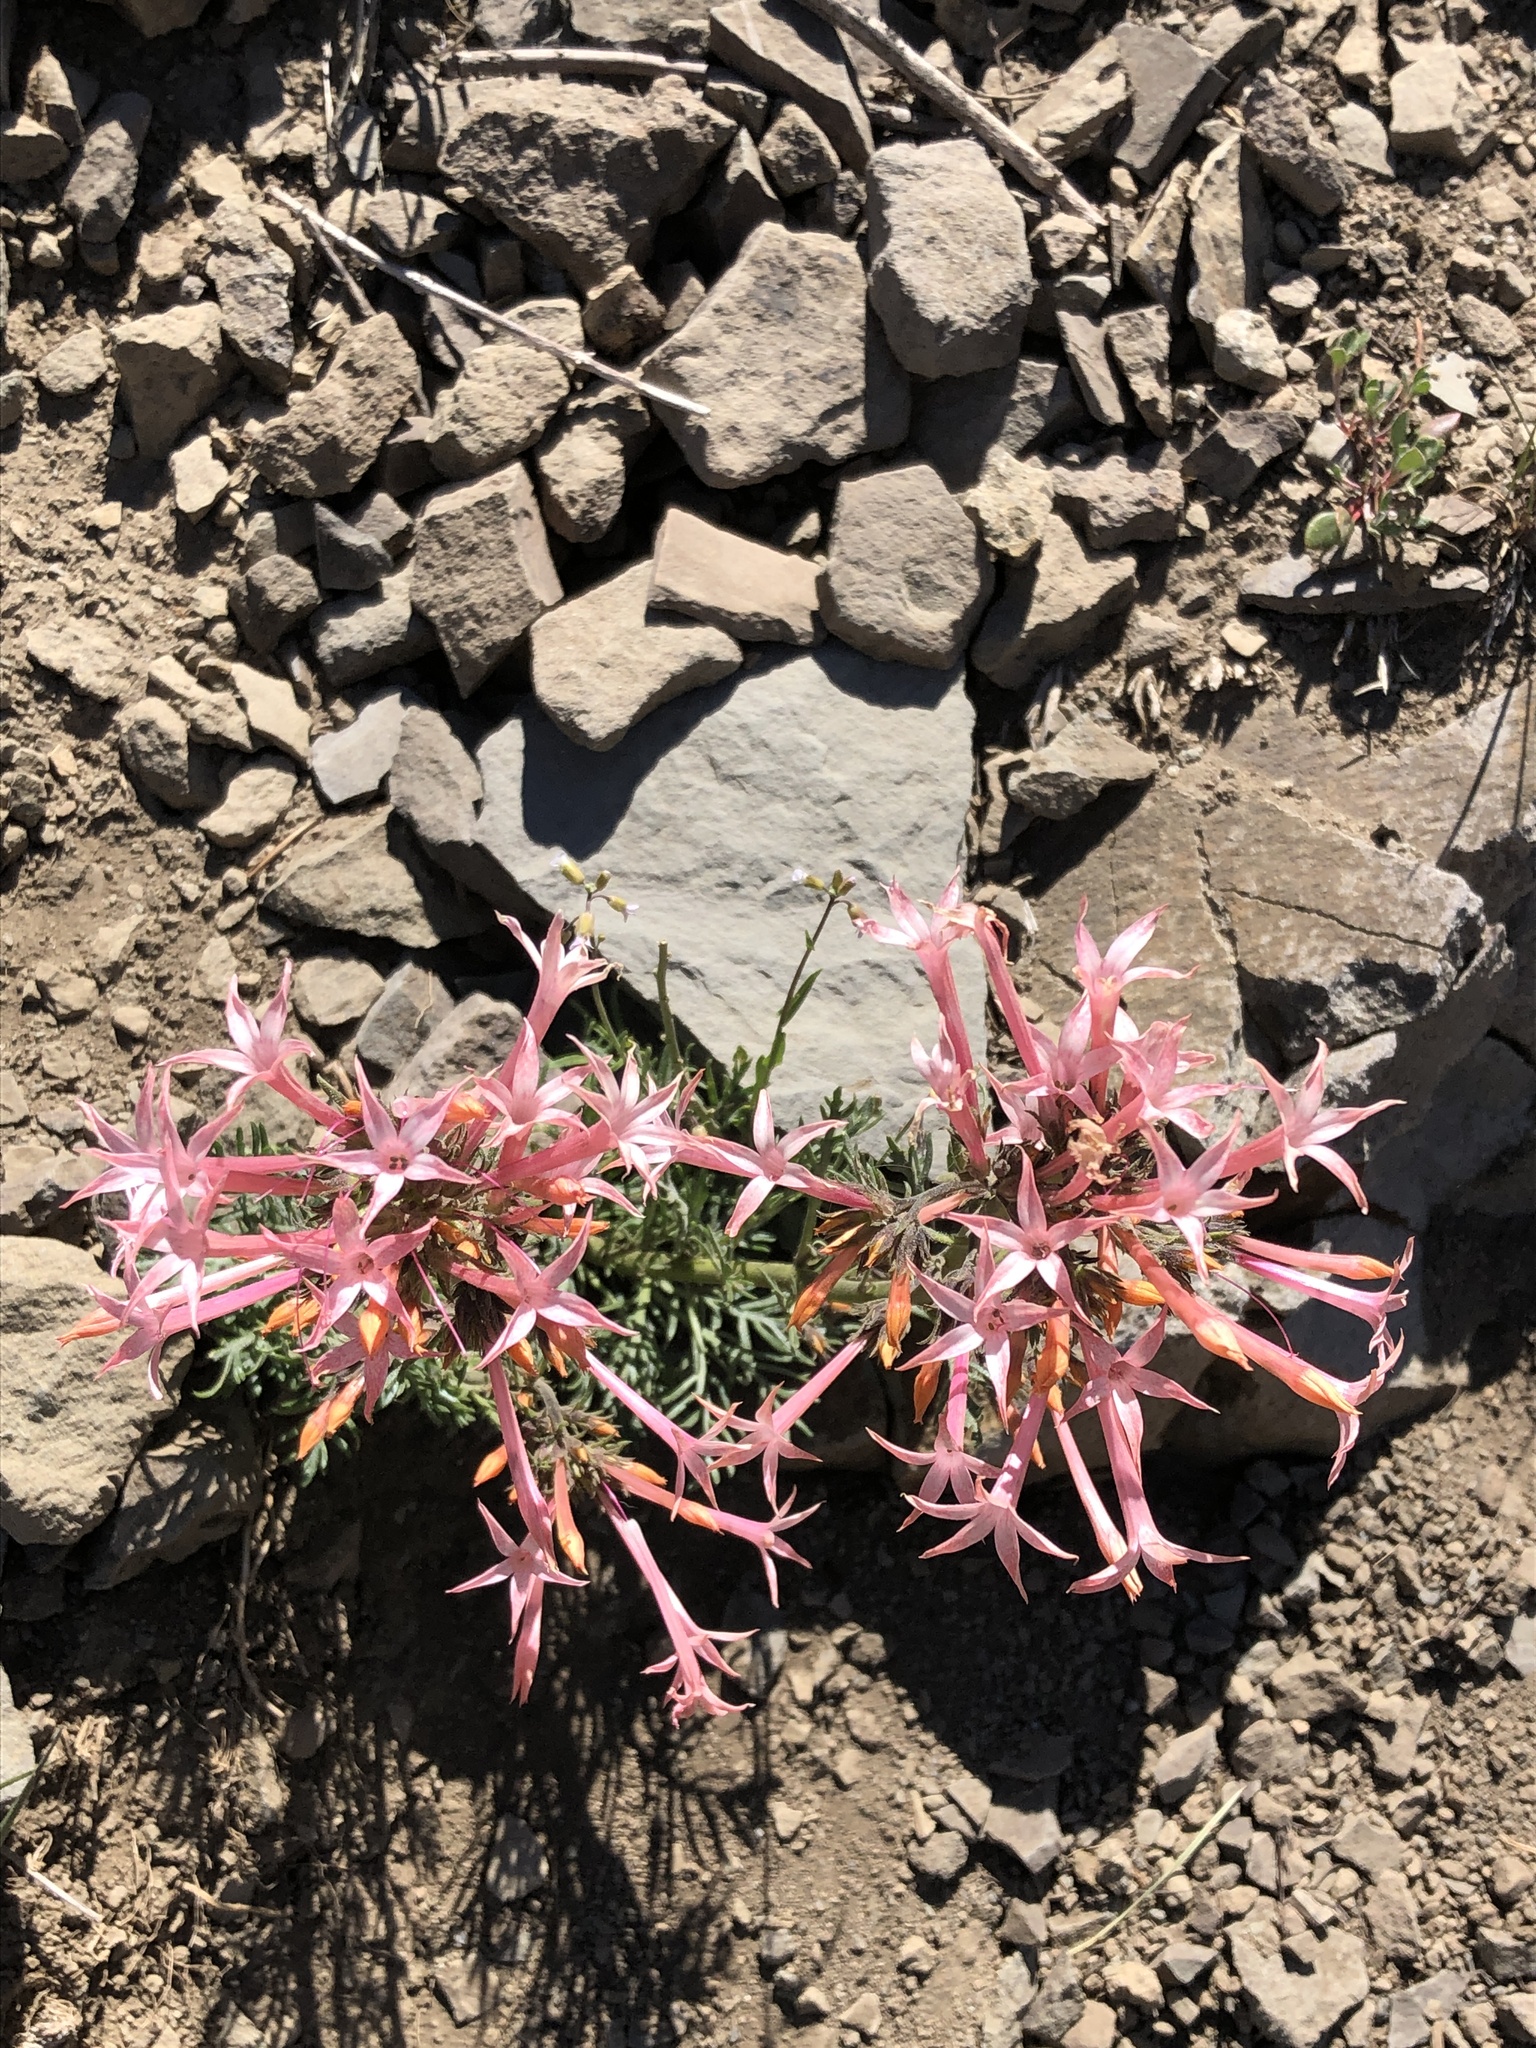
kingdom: Plantae
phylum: Tracheophyta
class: Magnoliopsida
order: Ericales
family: Polemoniaceae
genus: Ipomopsis
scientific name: Ipomopsis tenuituba
